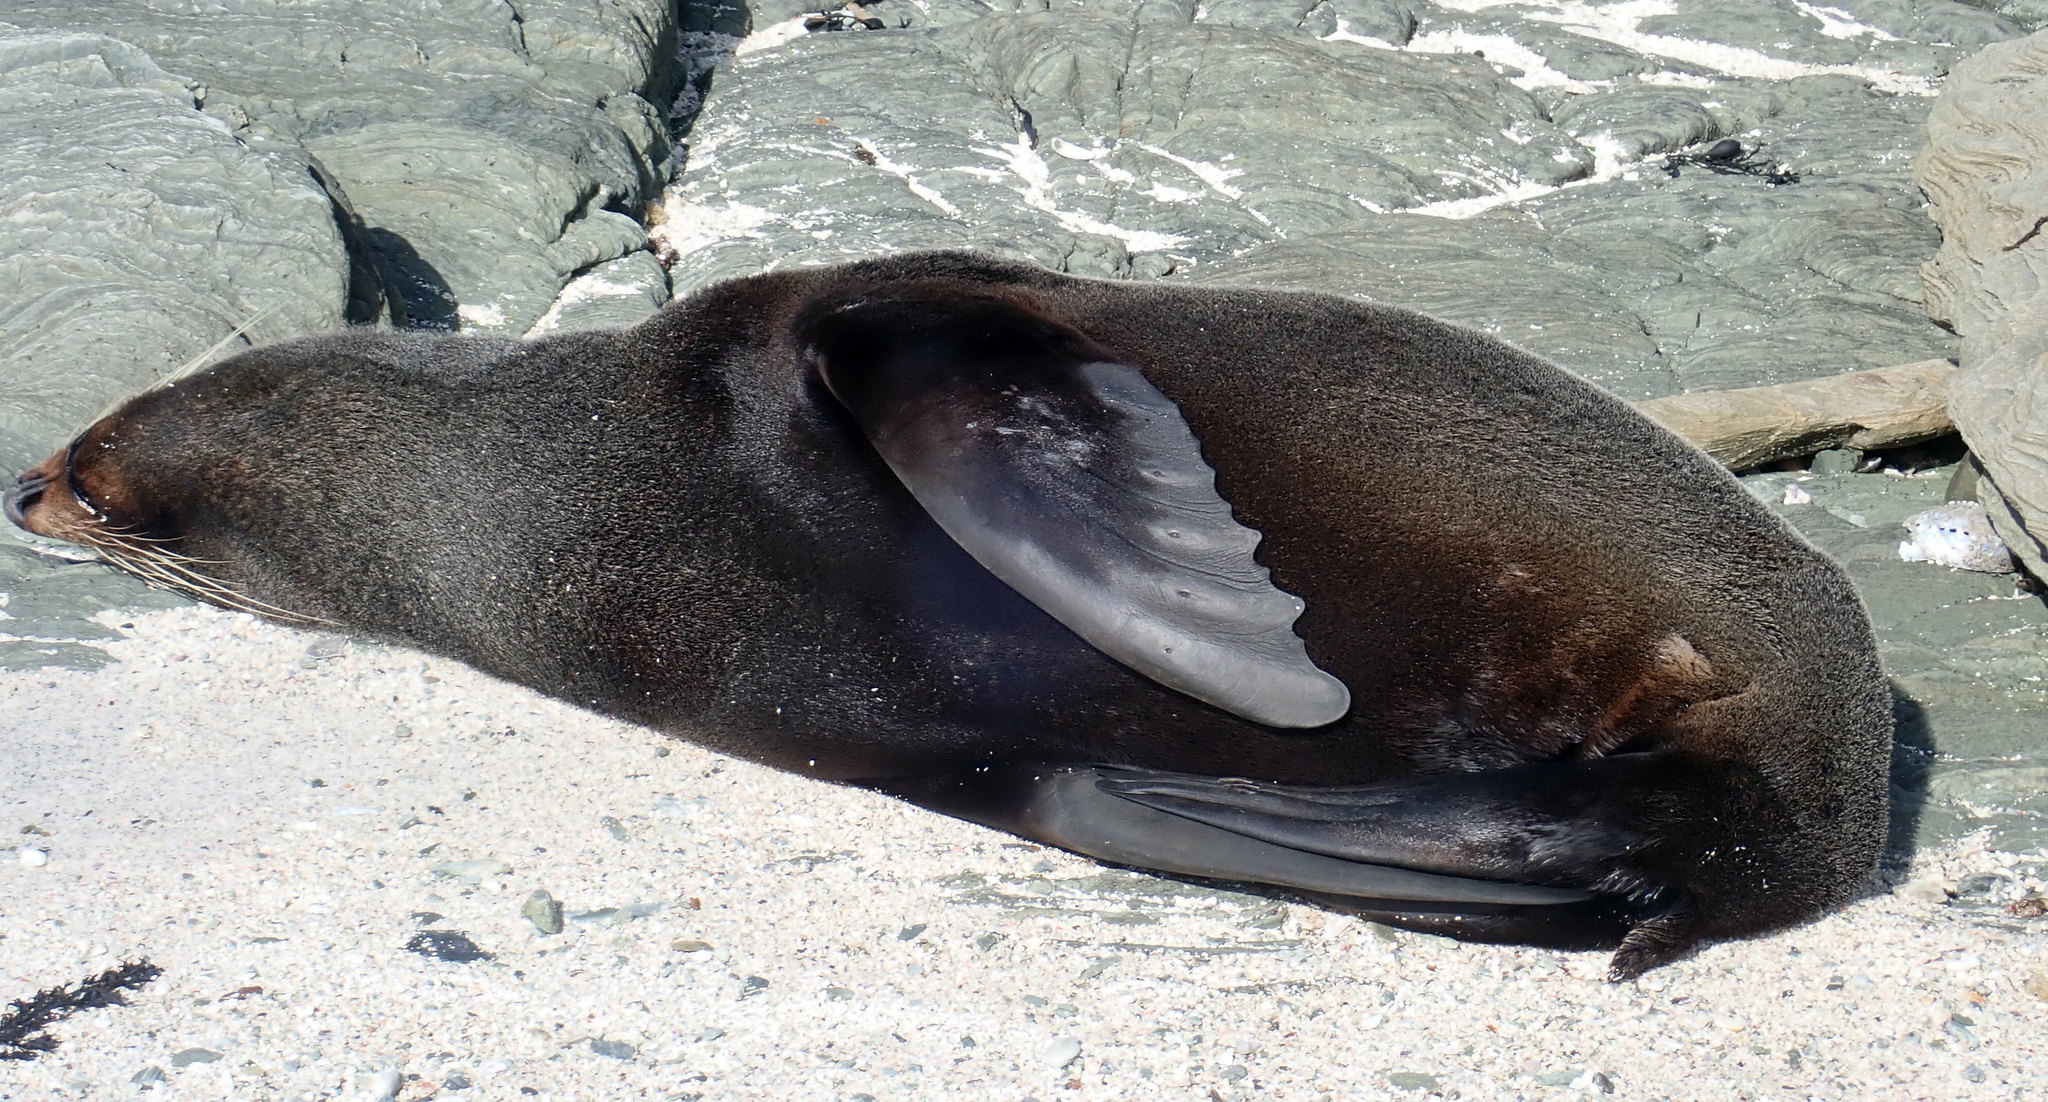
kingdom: Animalia
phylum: Chordata
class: Mammalia
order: Carnivora
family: Otariidae
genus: Arctocephalus
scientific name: Arctocephalus forsteri
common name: New zealand fur seal
